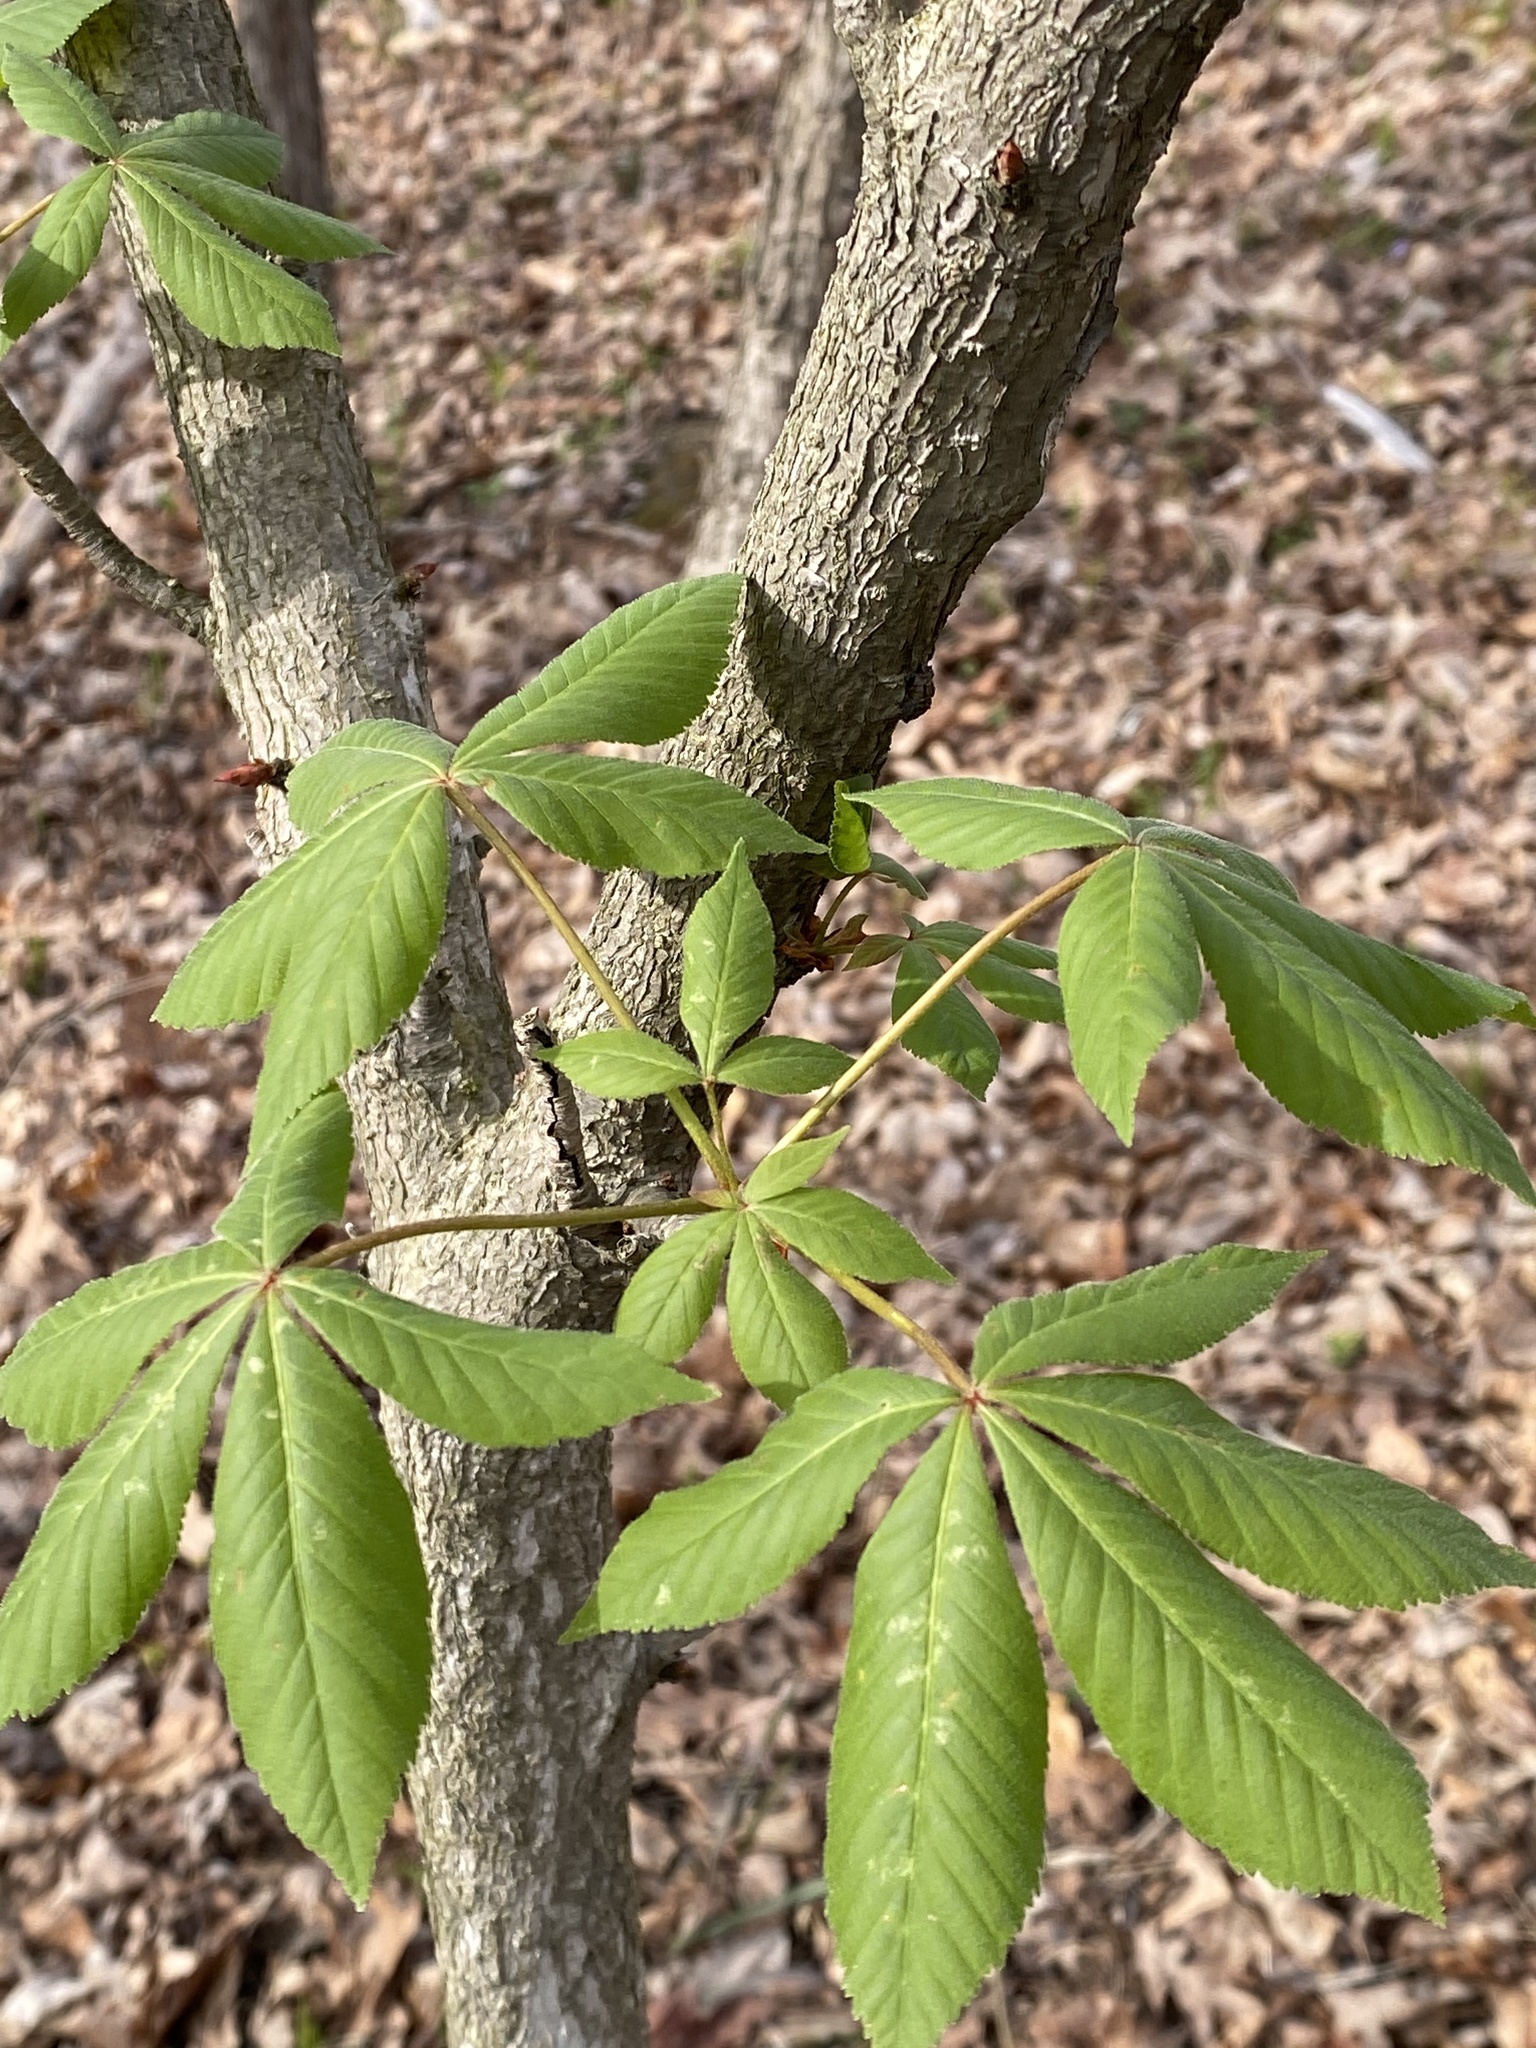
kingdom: Plantae
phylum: Tracheophyta
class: Magnoliopsida
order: Sapindales
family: Sapindaceae
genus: Aesculus
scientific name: Aesculus glabra
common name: Ohio buckeye
